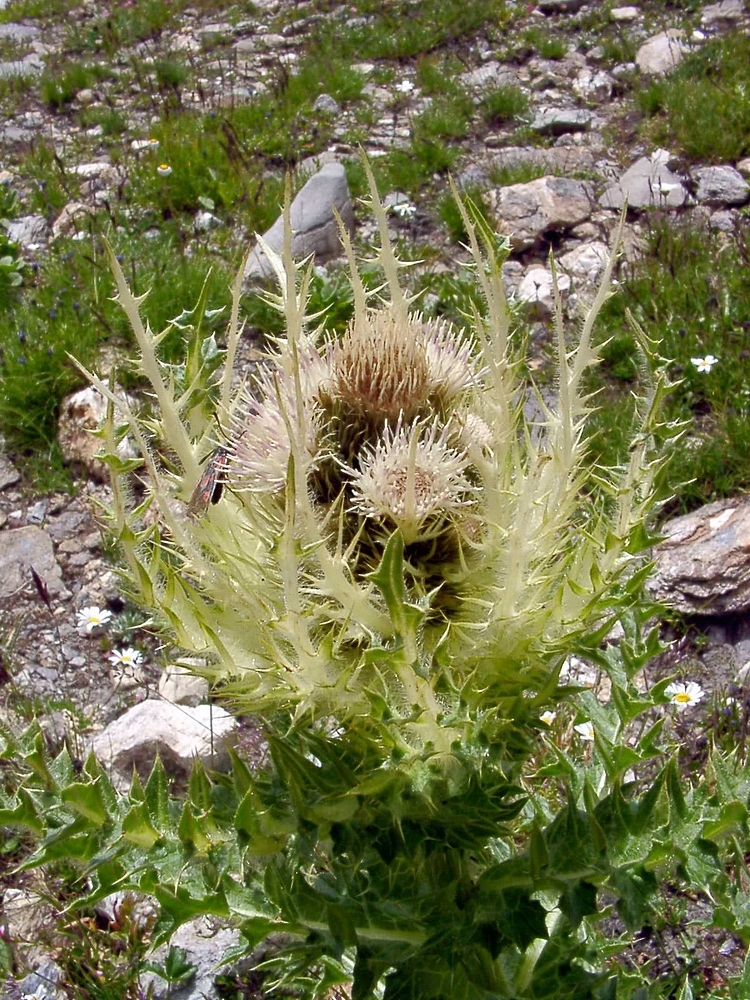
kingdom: Plantae
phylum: Tracheophyta
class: Magnoliopsida
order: Asterales
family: Asteraceae
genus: Cirsium
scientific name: Cirsium spinosissimum
